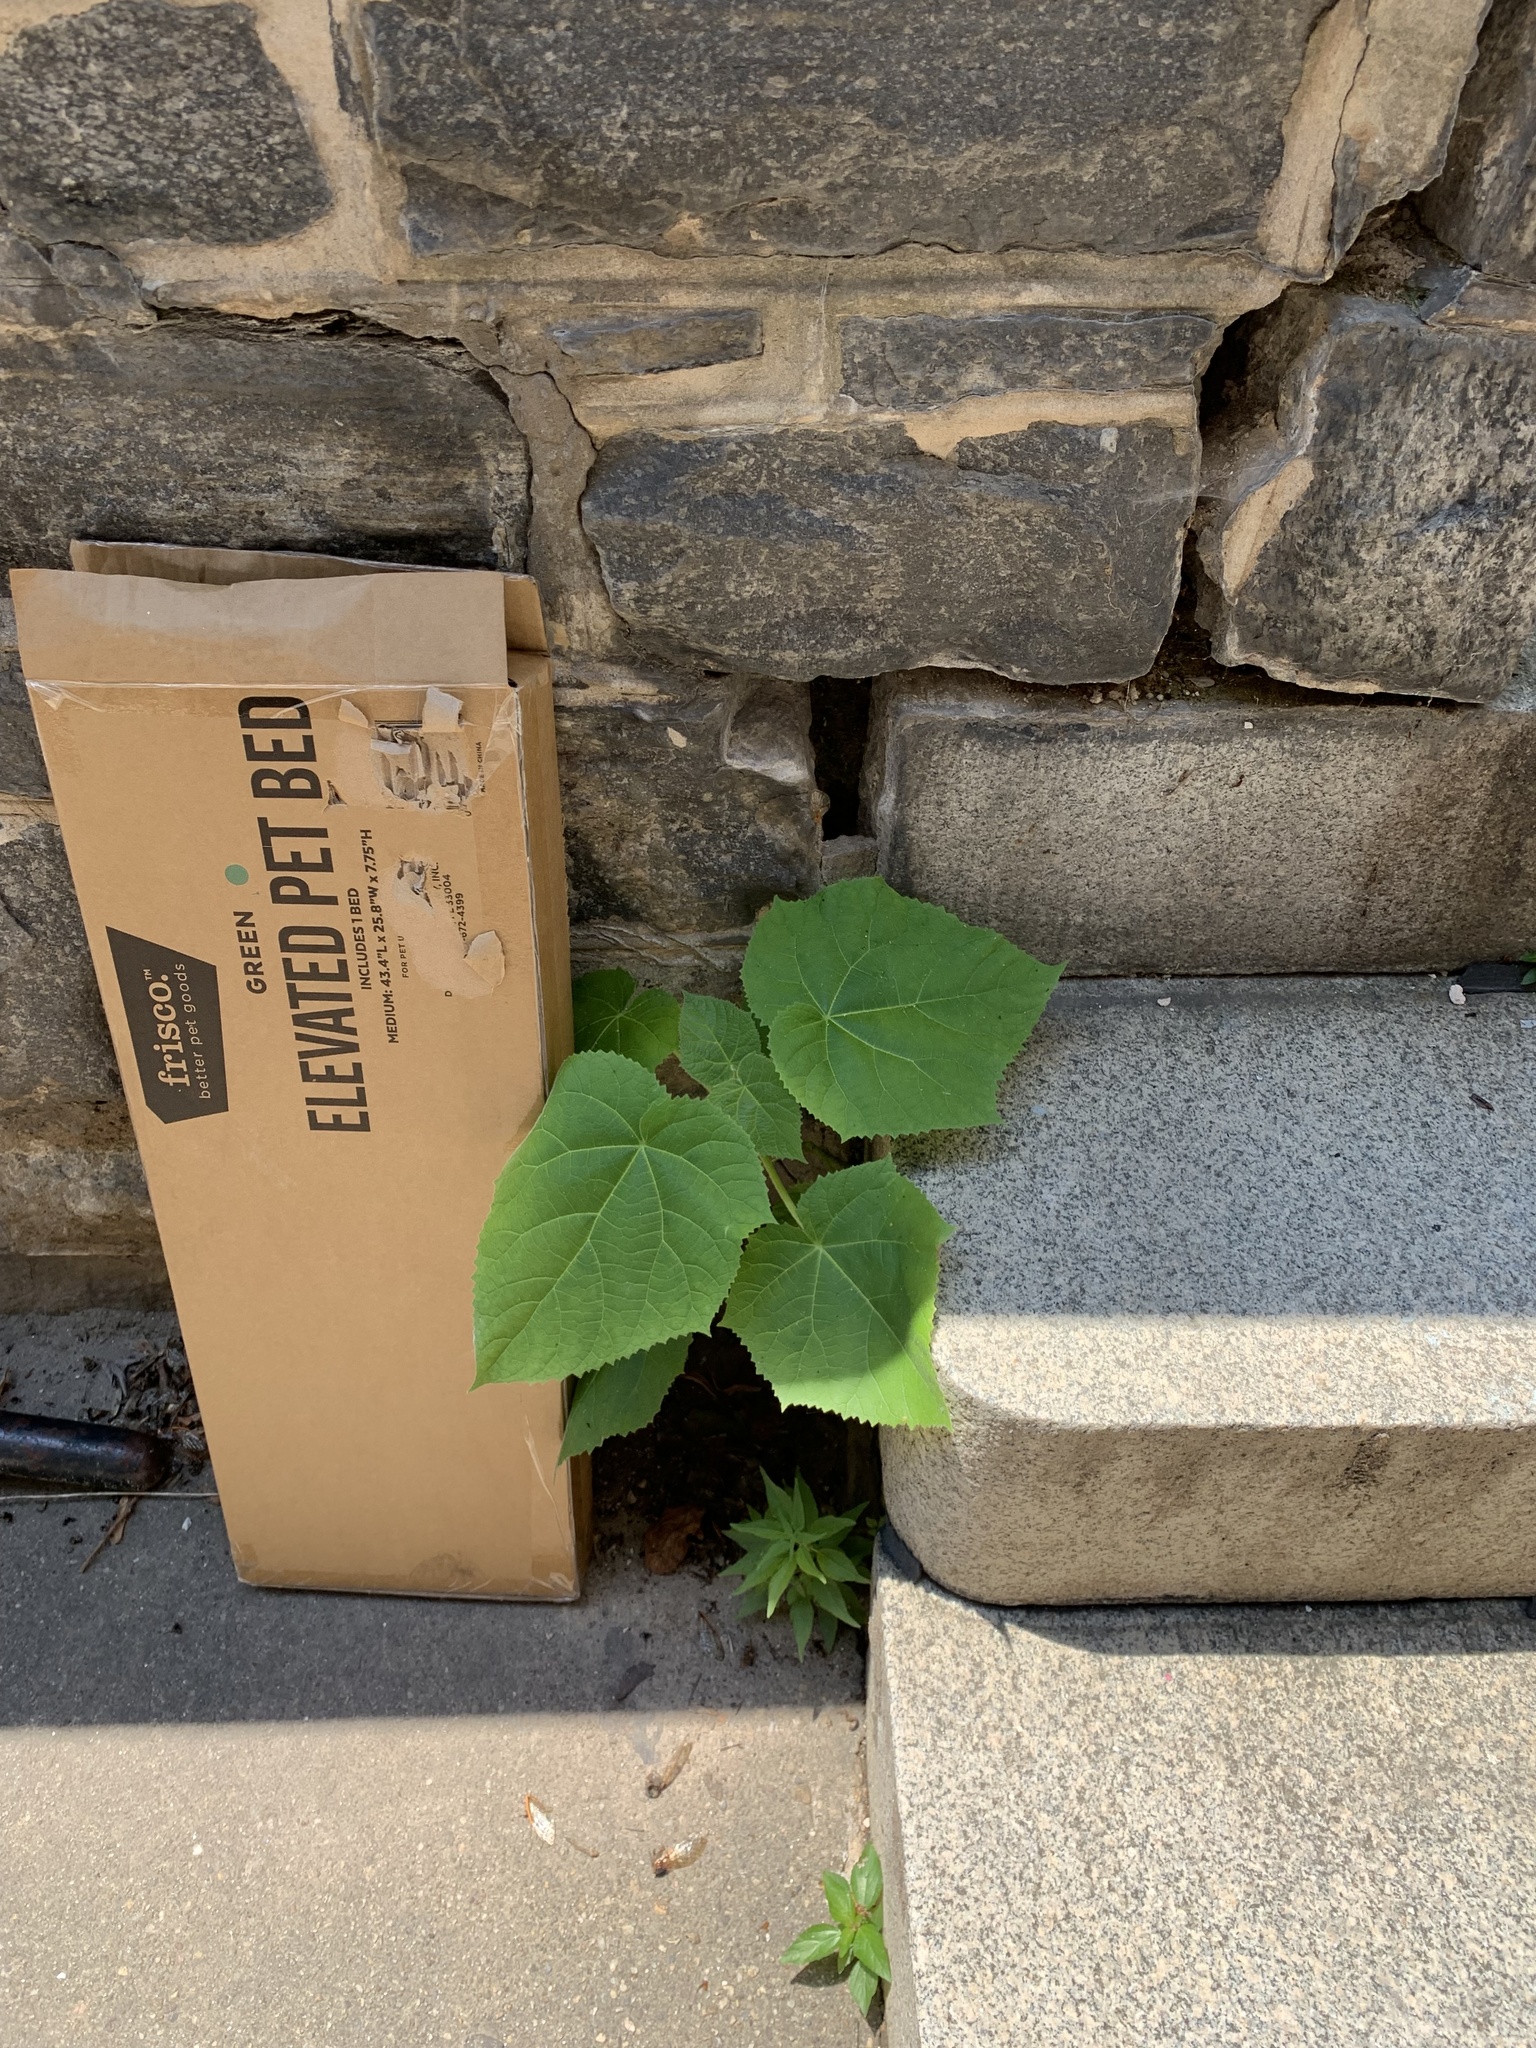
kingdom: Plantae
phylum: Tracheophyta
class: Magnoliopsida
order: Lamiales
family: Paulowniaceae
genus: Paulownia
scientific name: Paulownia tomentosa
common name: Foxglove-tree
